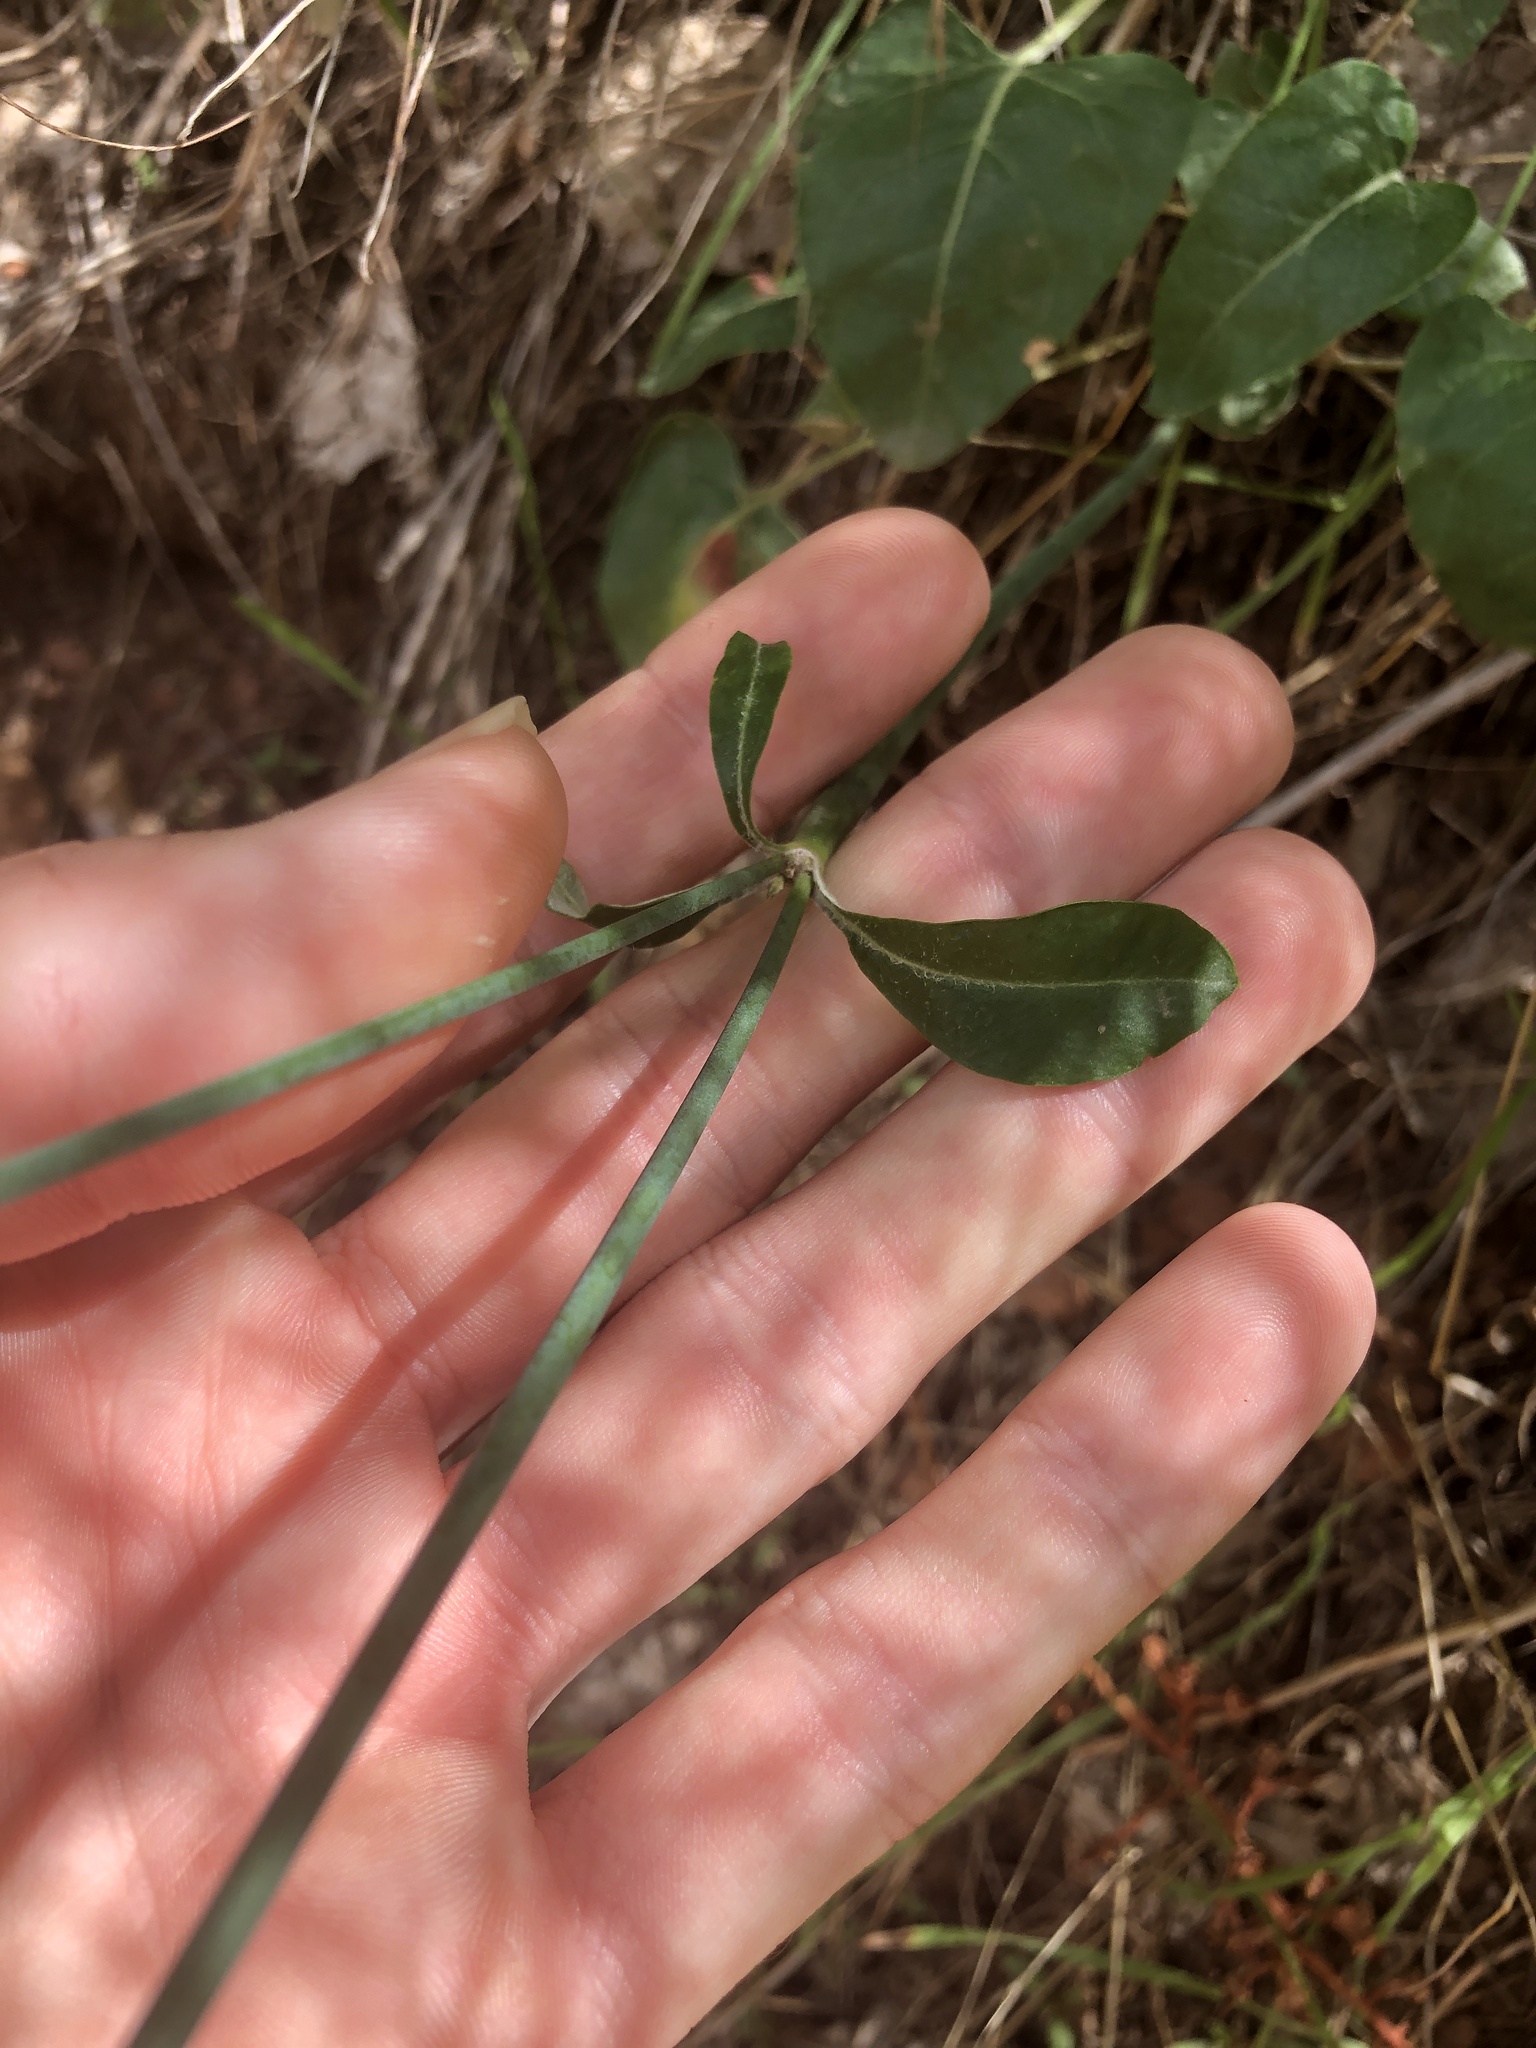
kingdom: Plantae
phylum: Tracheophyta
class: Magnoliopsida
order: Caryophyllales
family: Polygonaceae
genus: Eriogonum
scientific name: Eriogonum zionis
